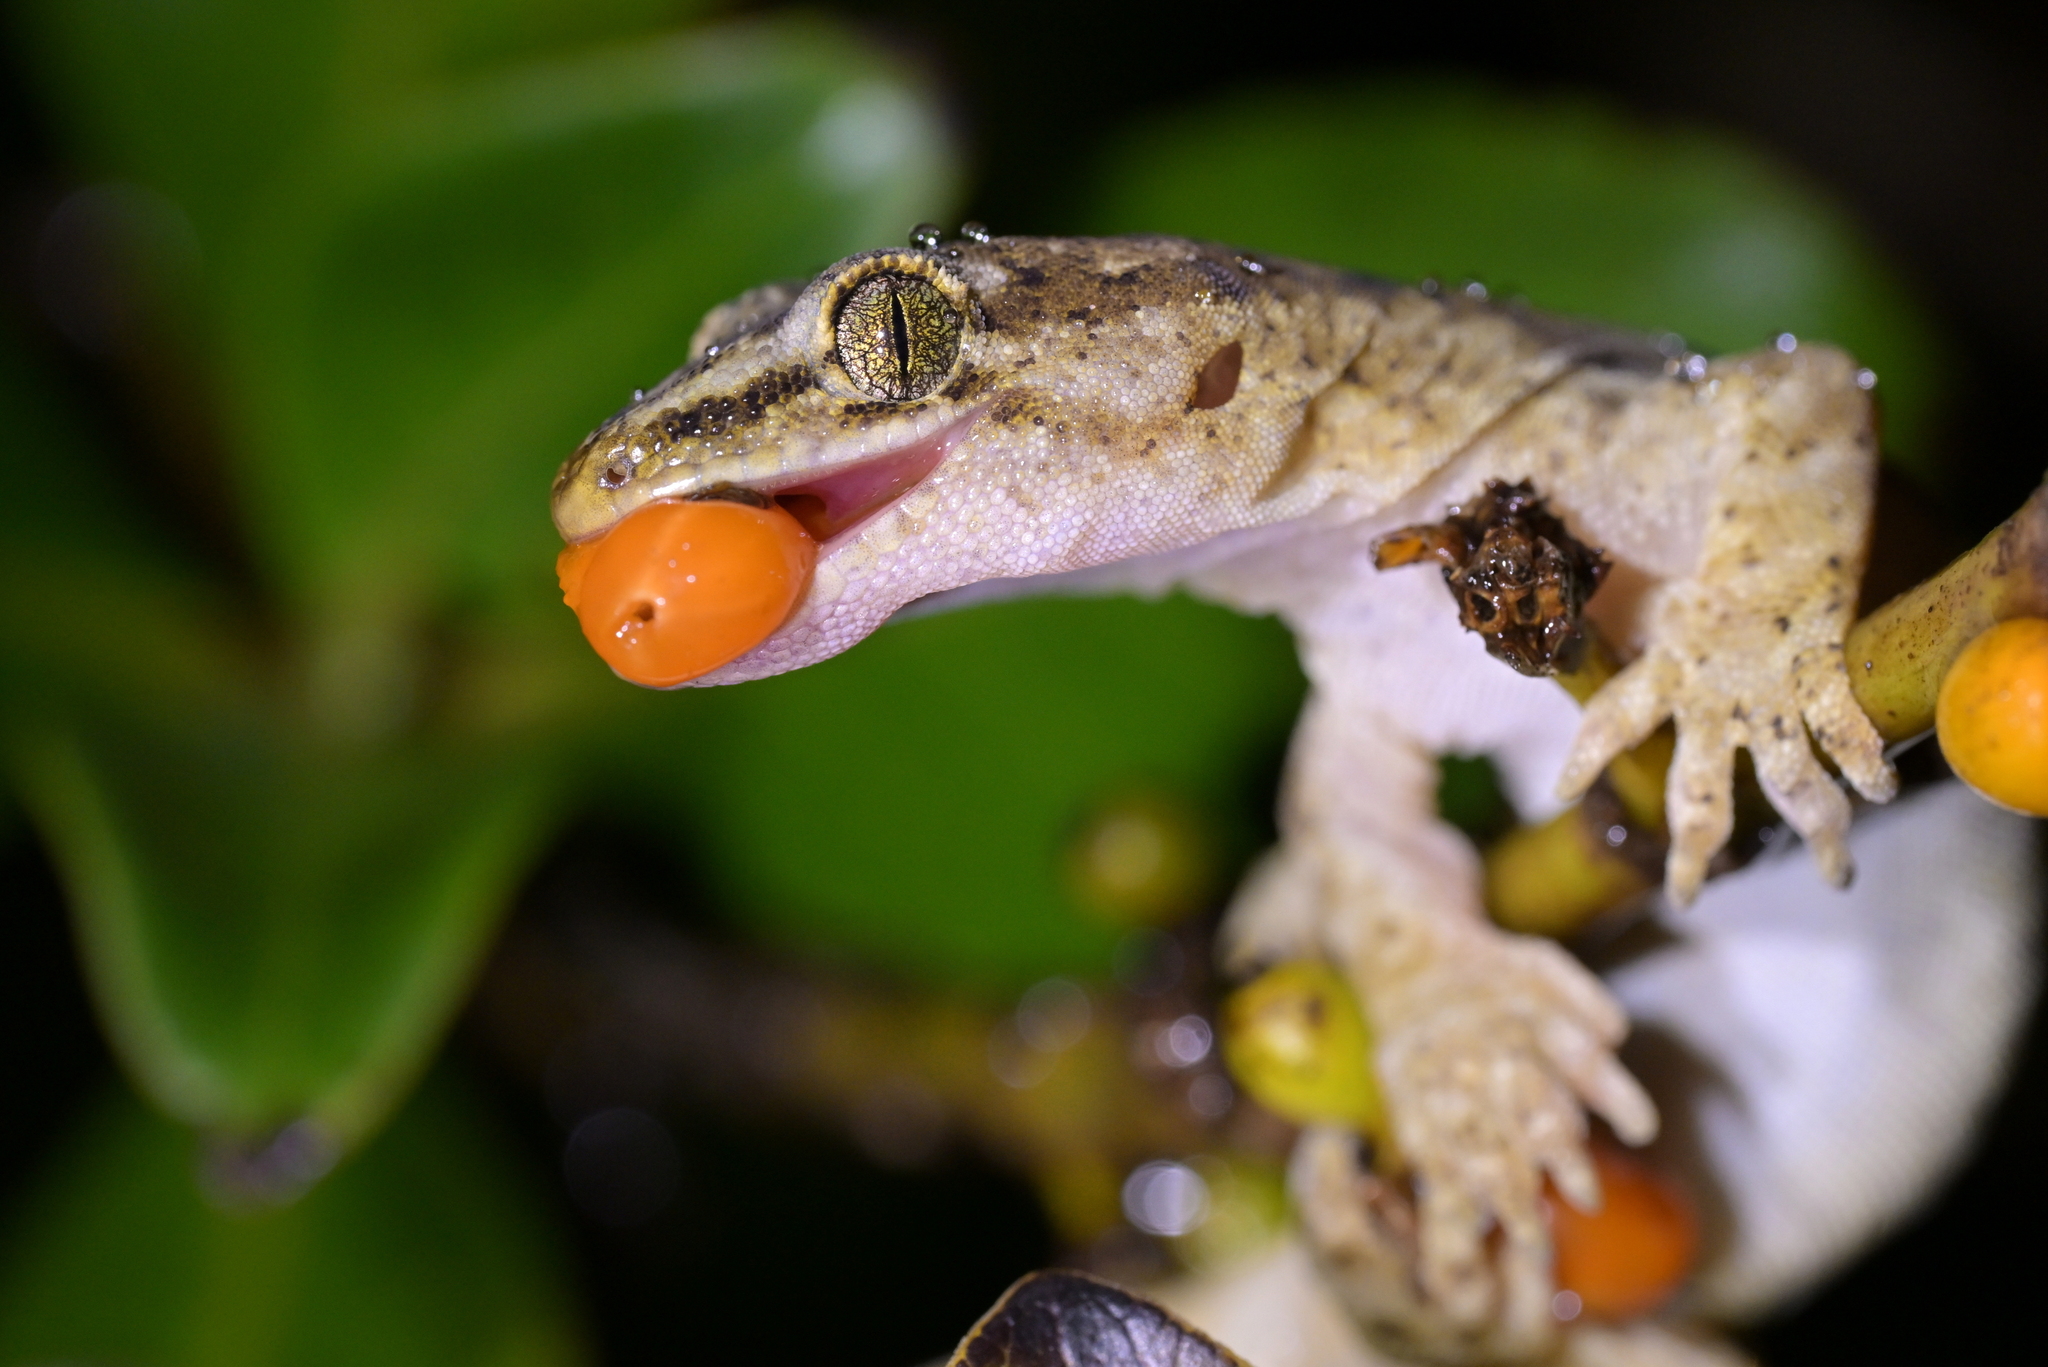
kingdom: Animalia
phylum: Chordata
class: Squamata
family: Diplodactylidae
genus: Woodworthia
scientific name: Woodworthia maculata
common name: Raukawa gecko
